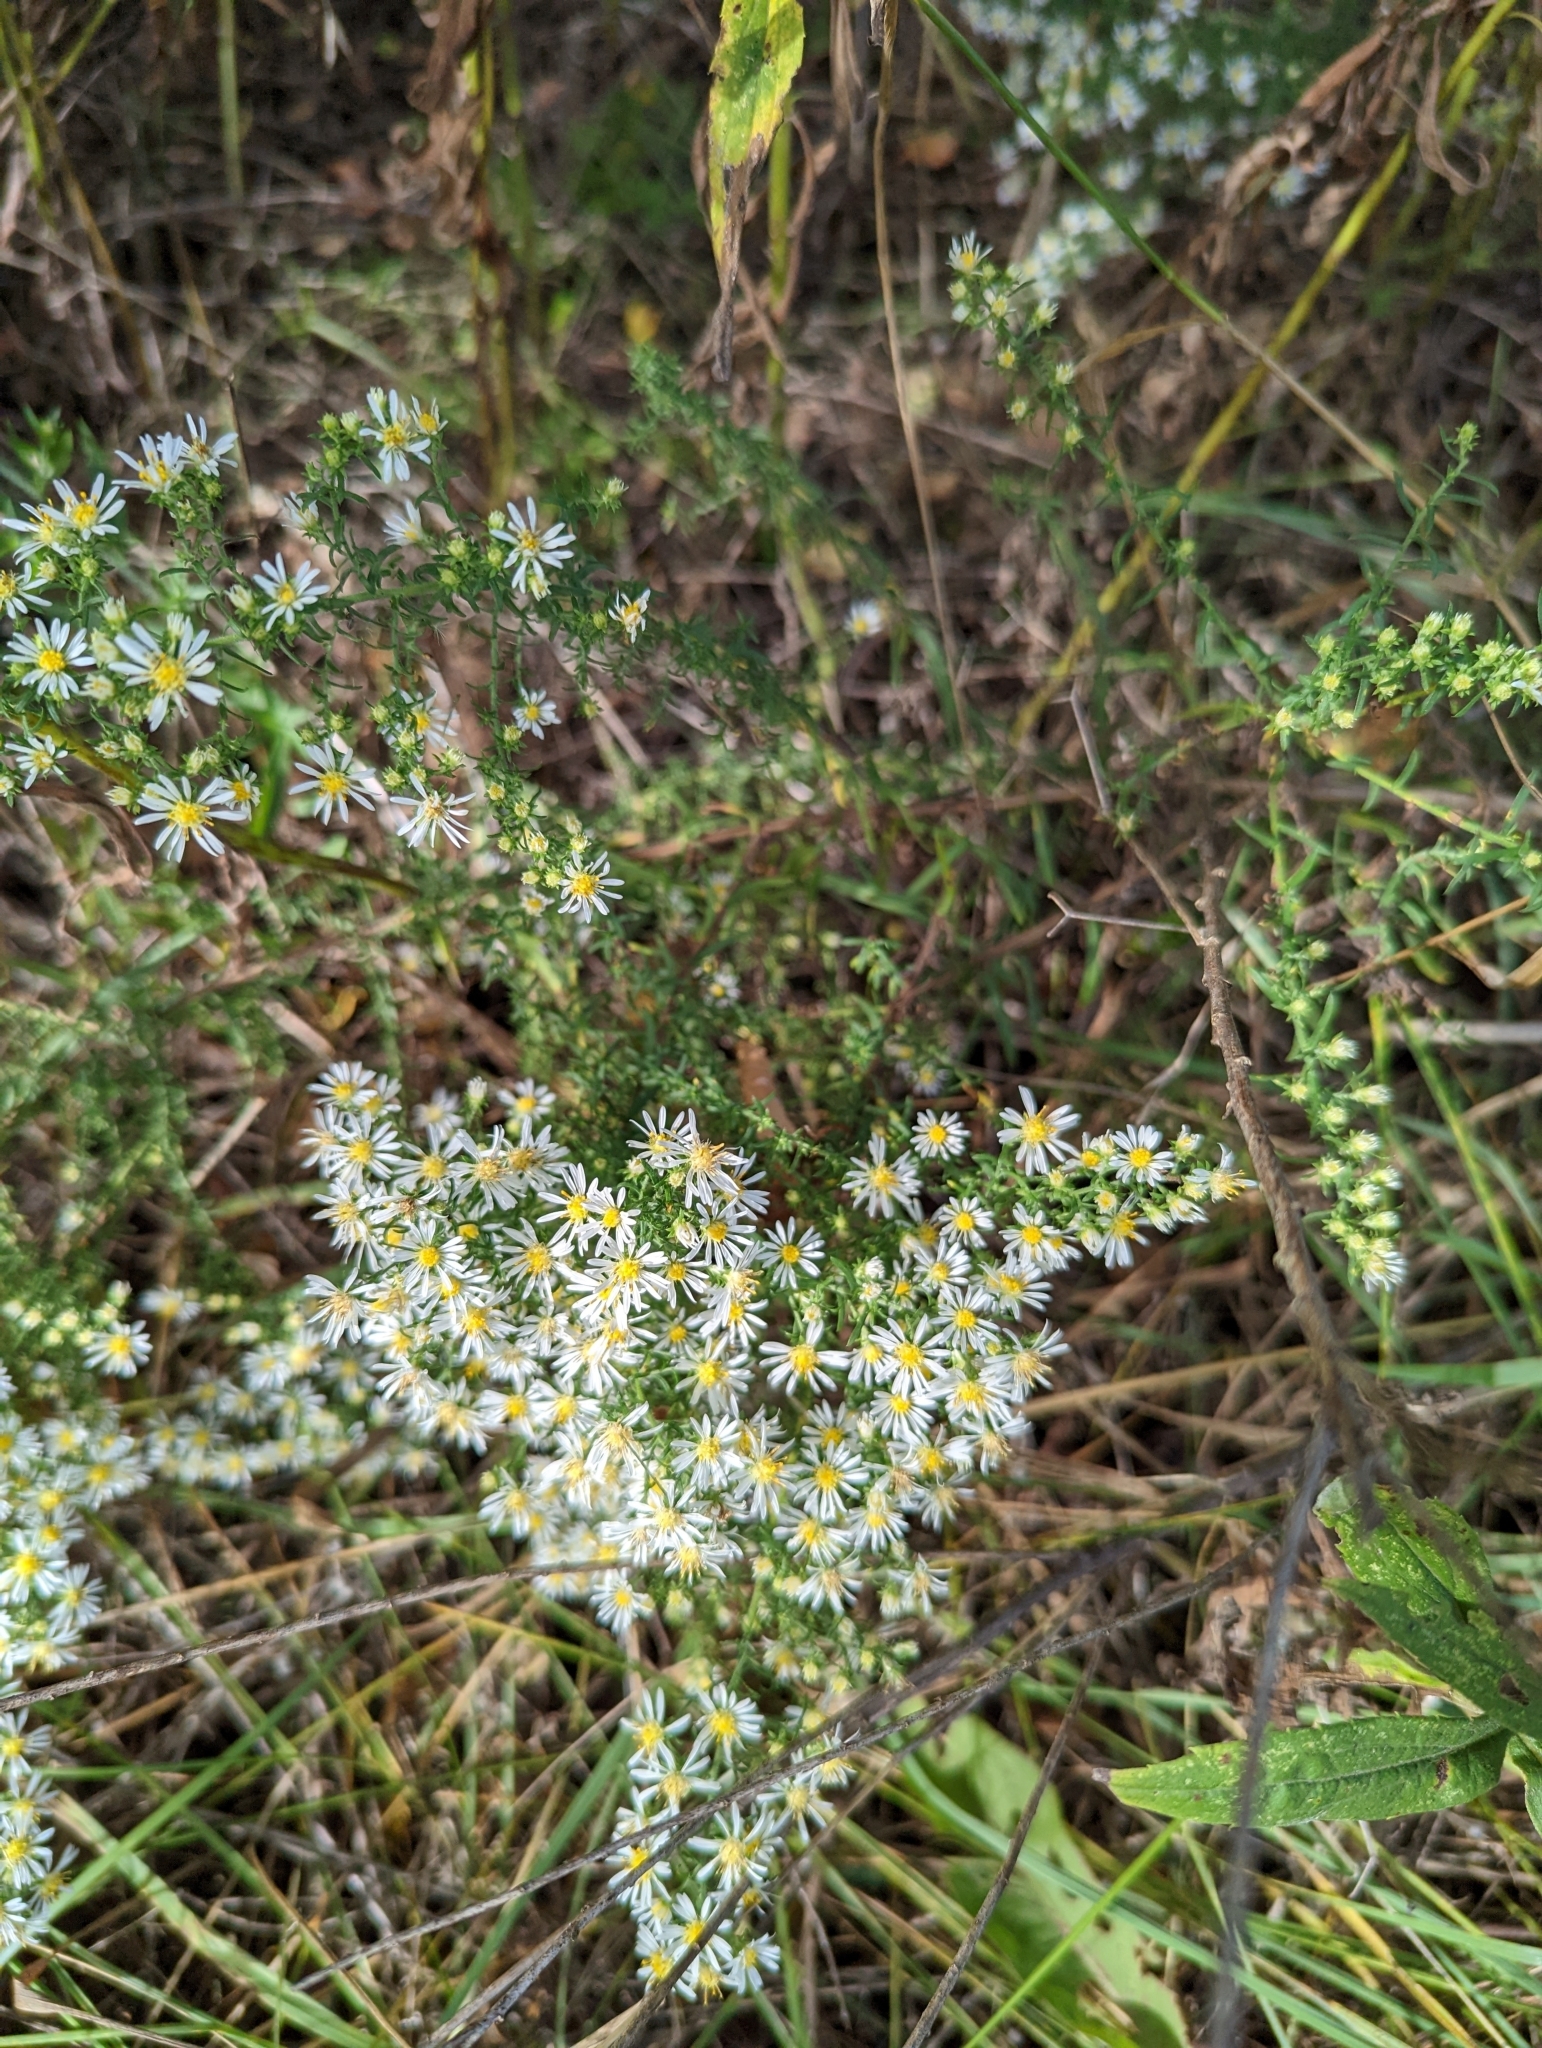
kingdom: Plantae
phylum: Tracheophyta
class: Magnoliopsida
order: Asterales
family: Asteraceae
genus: Symphyotrichum
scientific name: Symphyotrichum ericoides
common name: Heath aster
